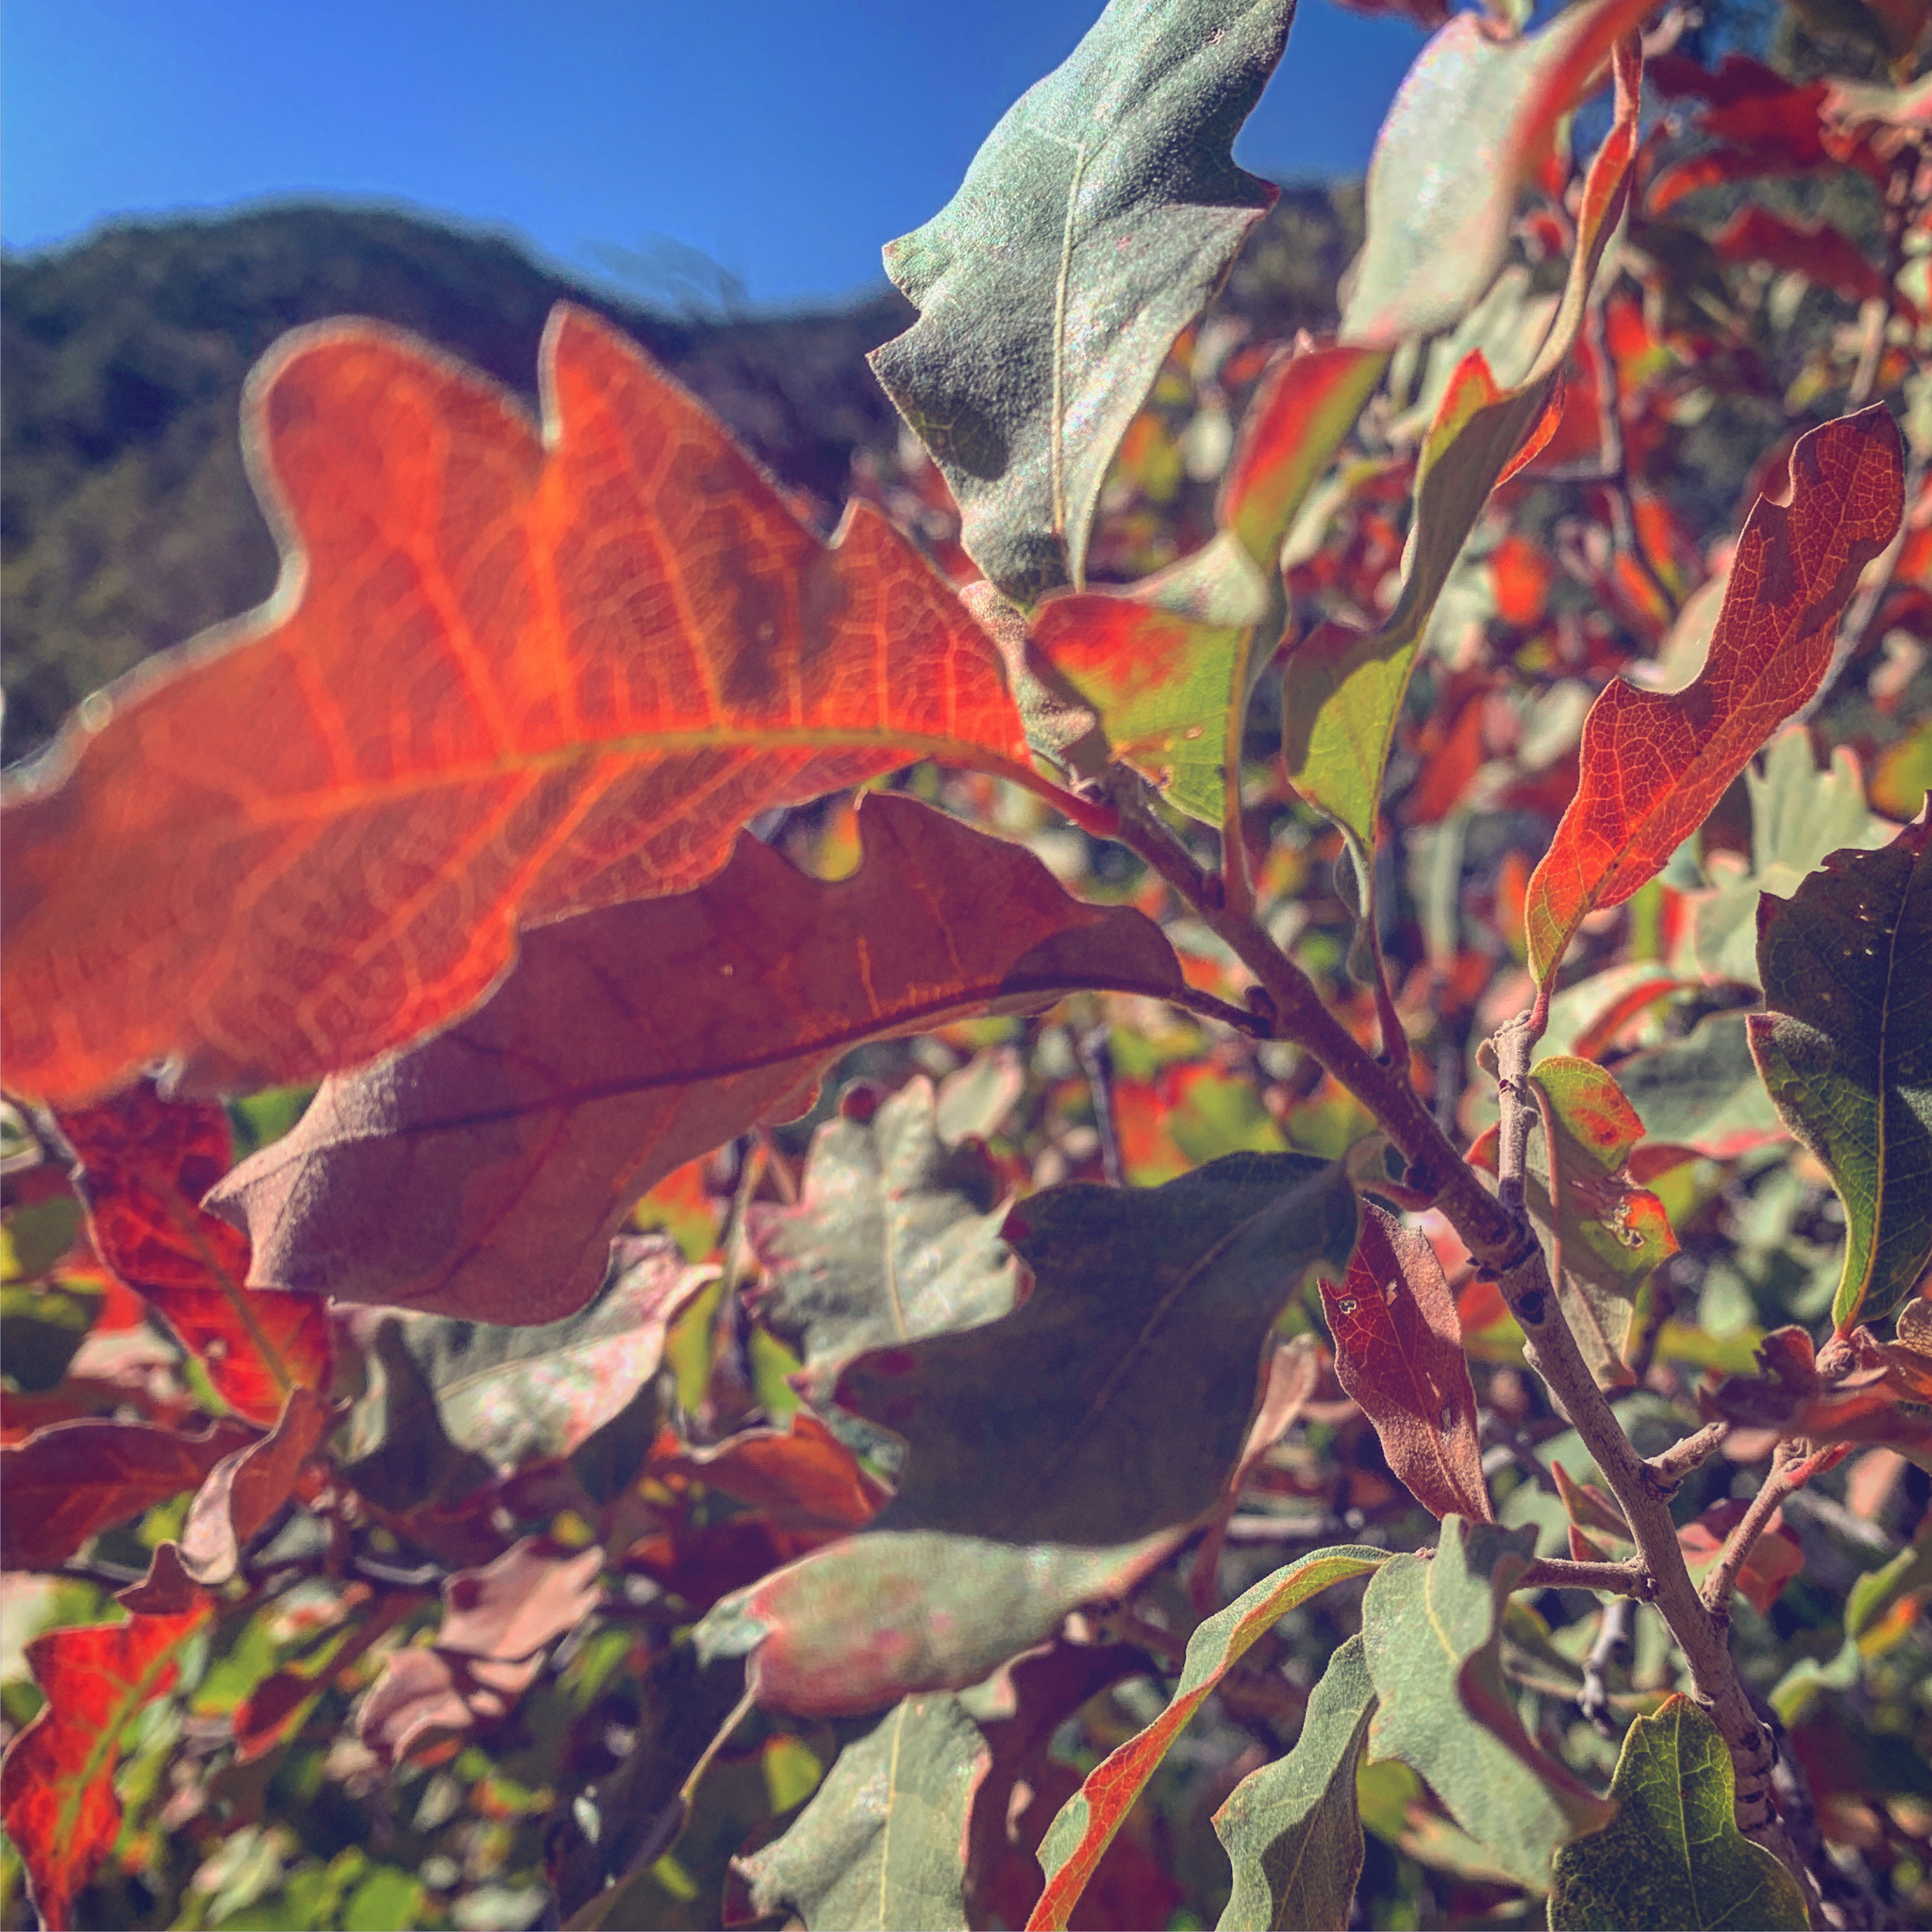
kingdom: Plantae
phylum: Tracheophyta
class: Magnoliopsida
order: Fagales
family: Fagaceae
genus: Quercus
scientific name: Quercus gambelii
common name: Gambel oak
